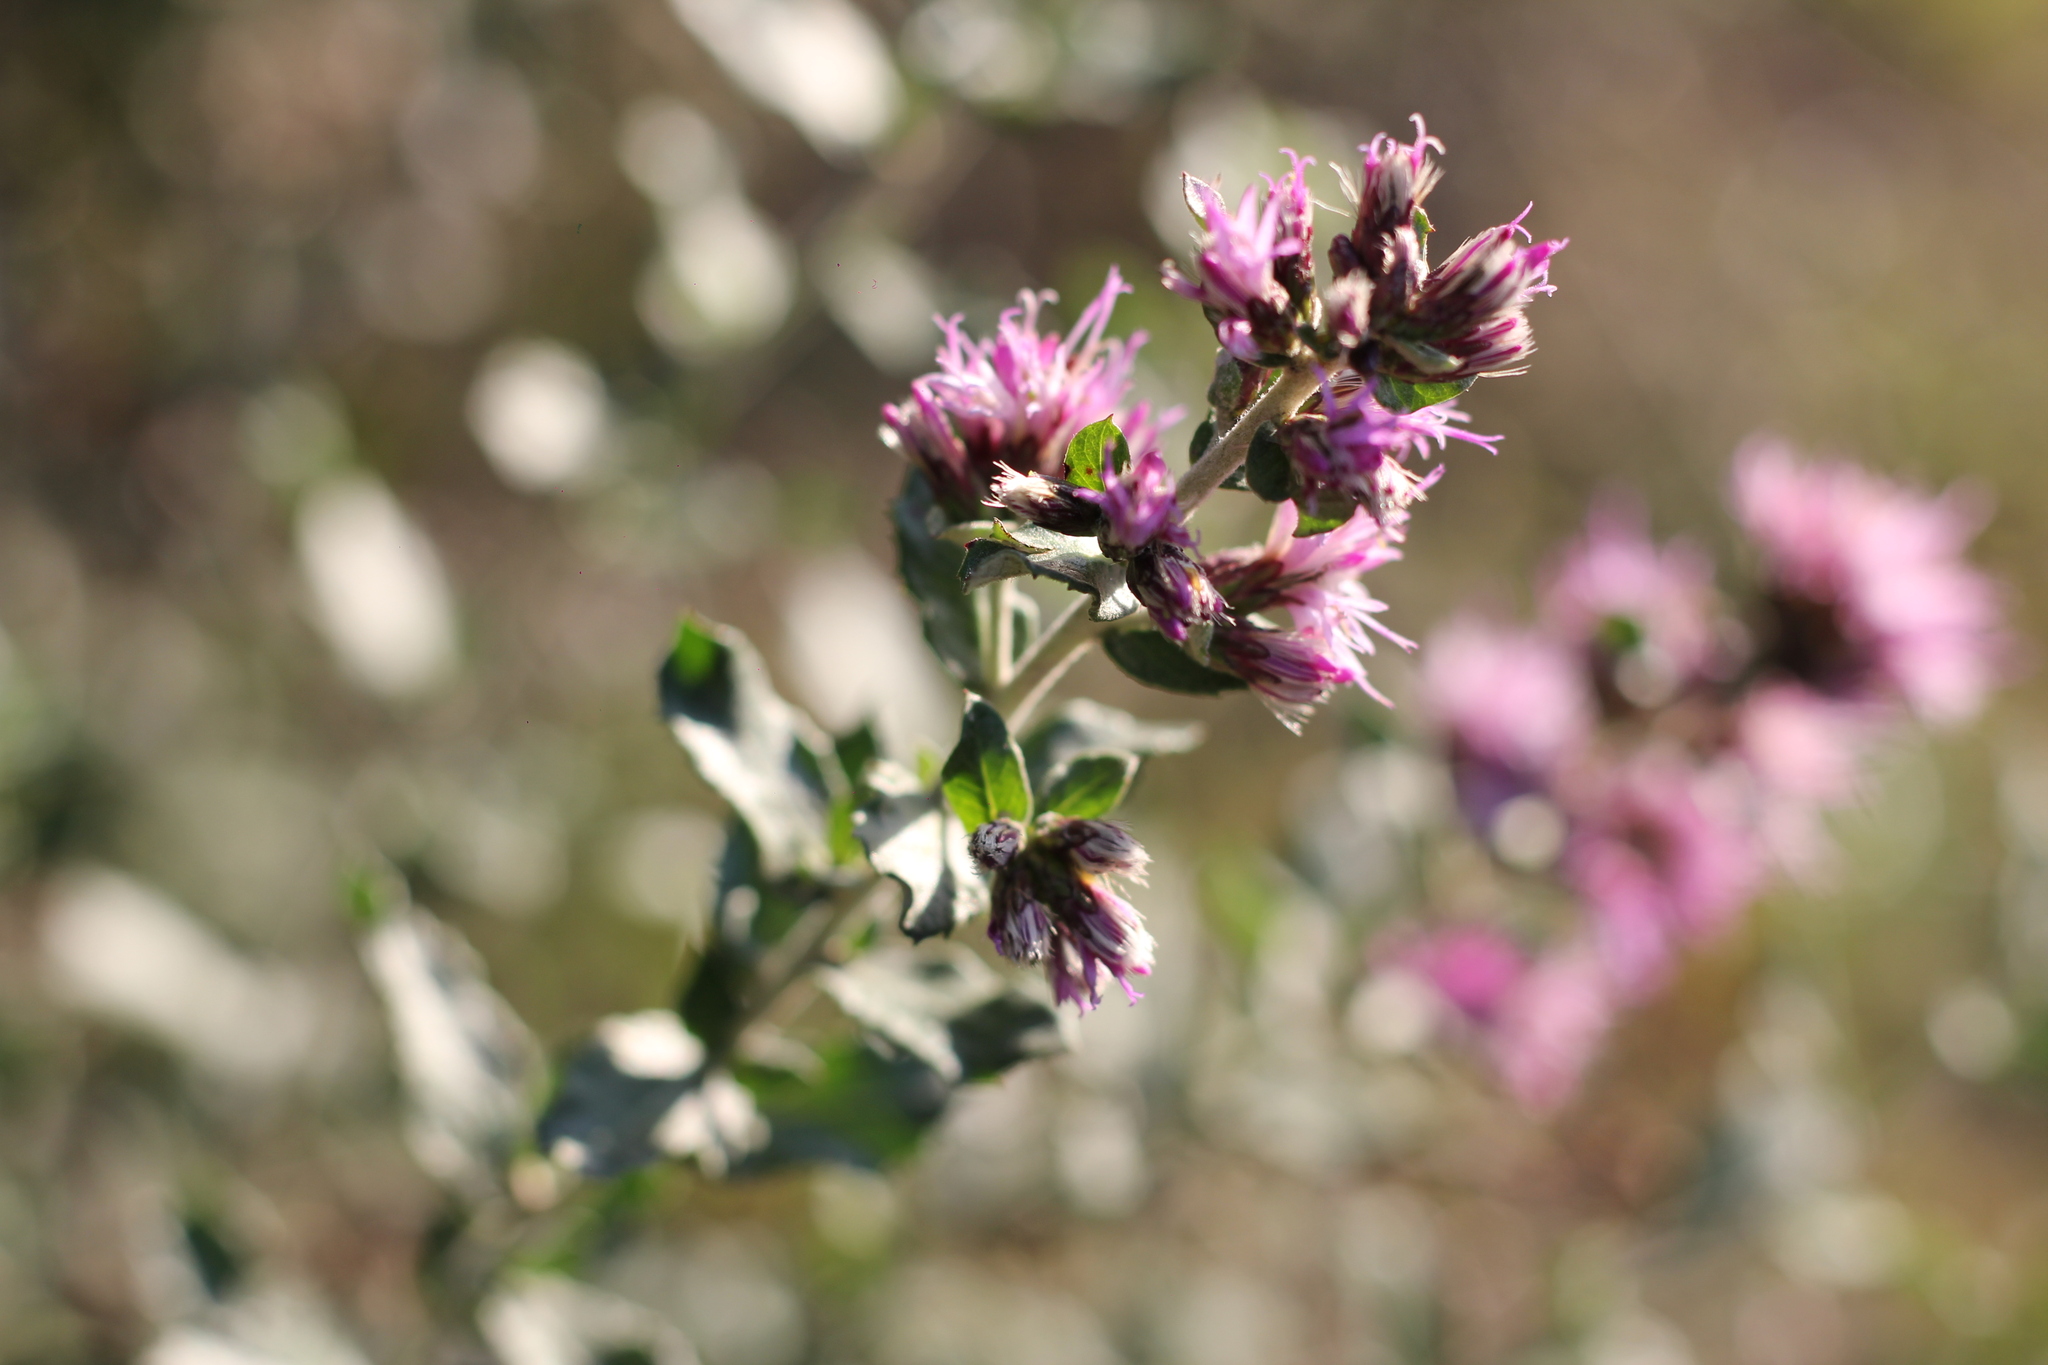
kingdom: Plantae
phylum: Tracheophyta
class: Magnoliopsida
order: Asterales
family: Asteraceae
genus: Vernonanthura
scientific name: Vernonanthura chamaedrys
